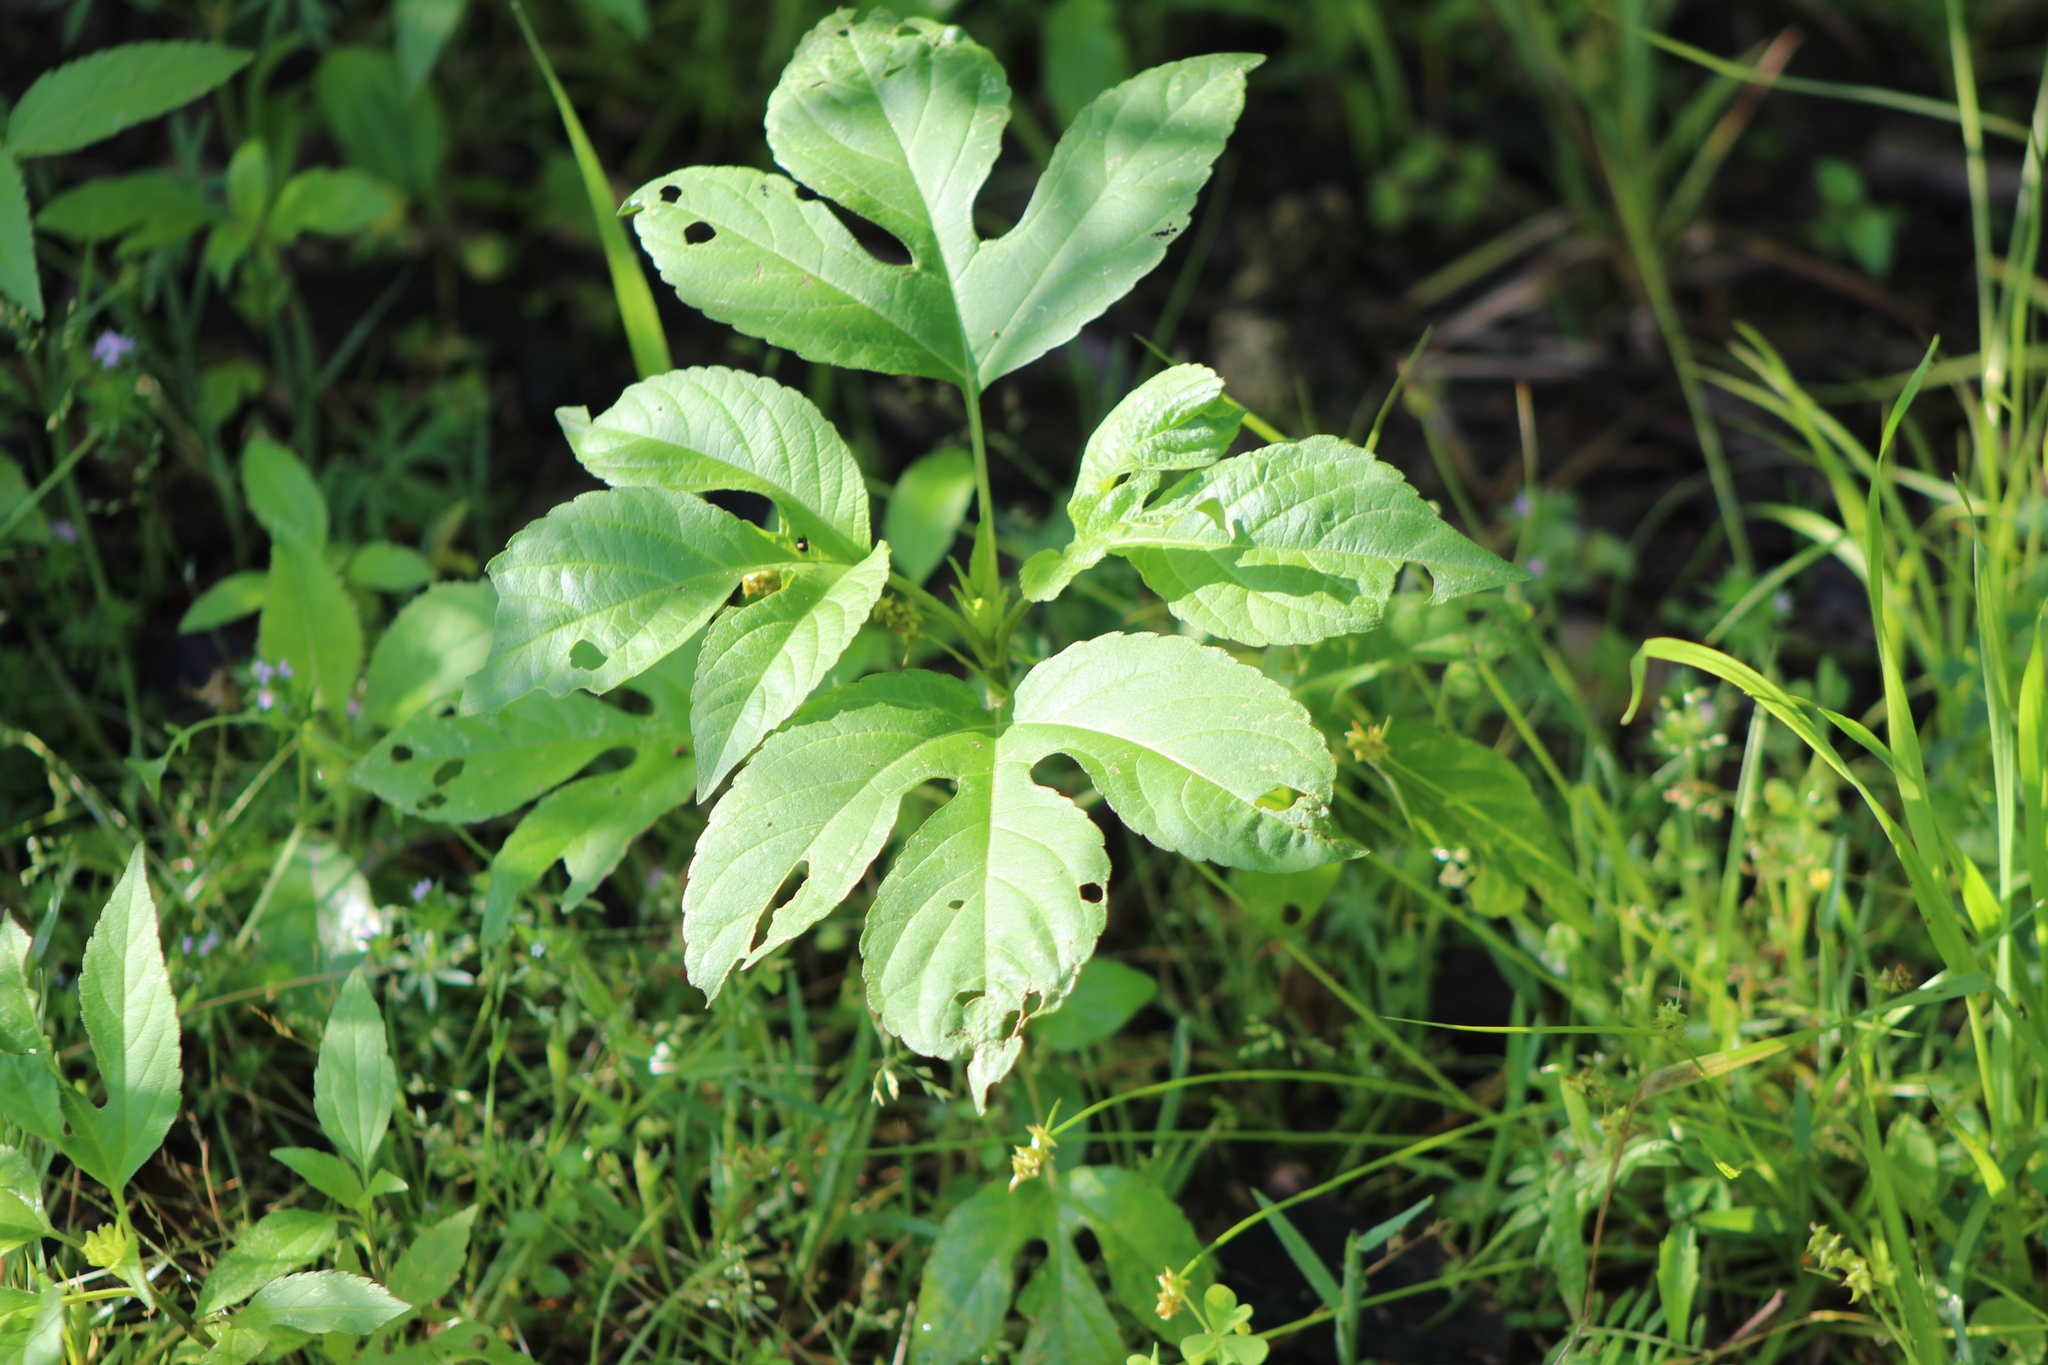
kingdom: Plantae
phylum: Tracheophyta
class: Magnoliopsida
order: Asterales
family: Asteraceae
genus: Ambrosia
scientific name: Ambrosia trifida
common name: Giant ragweed
